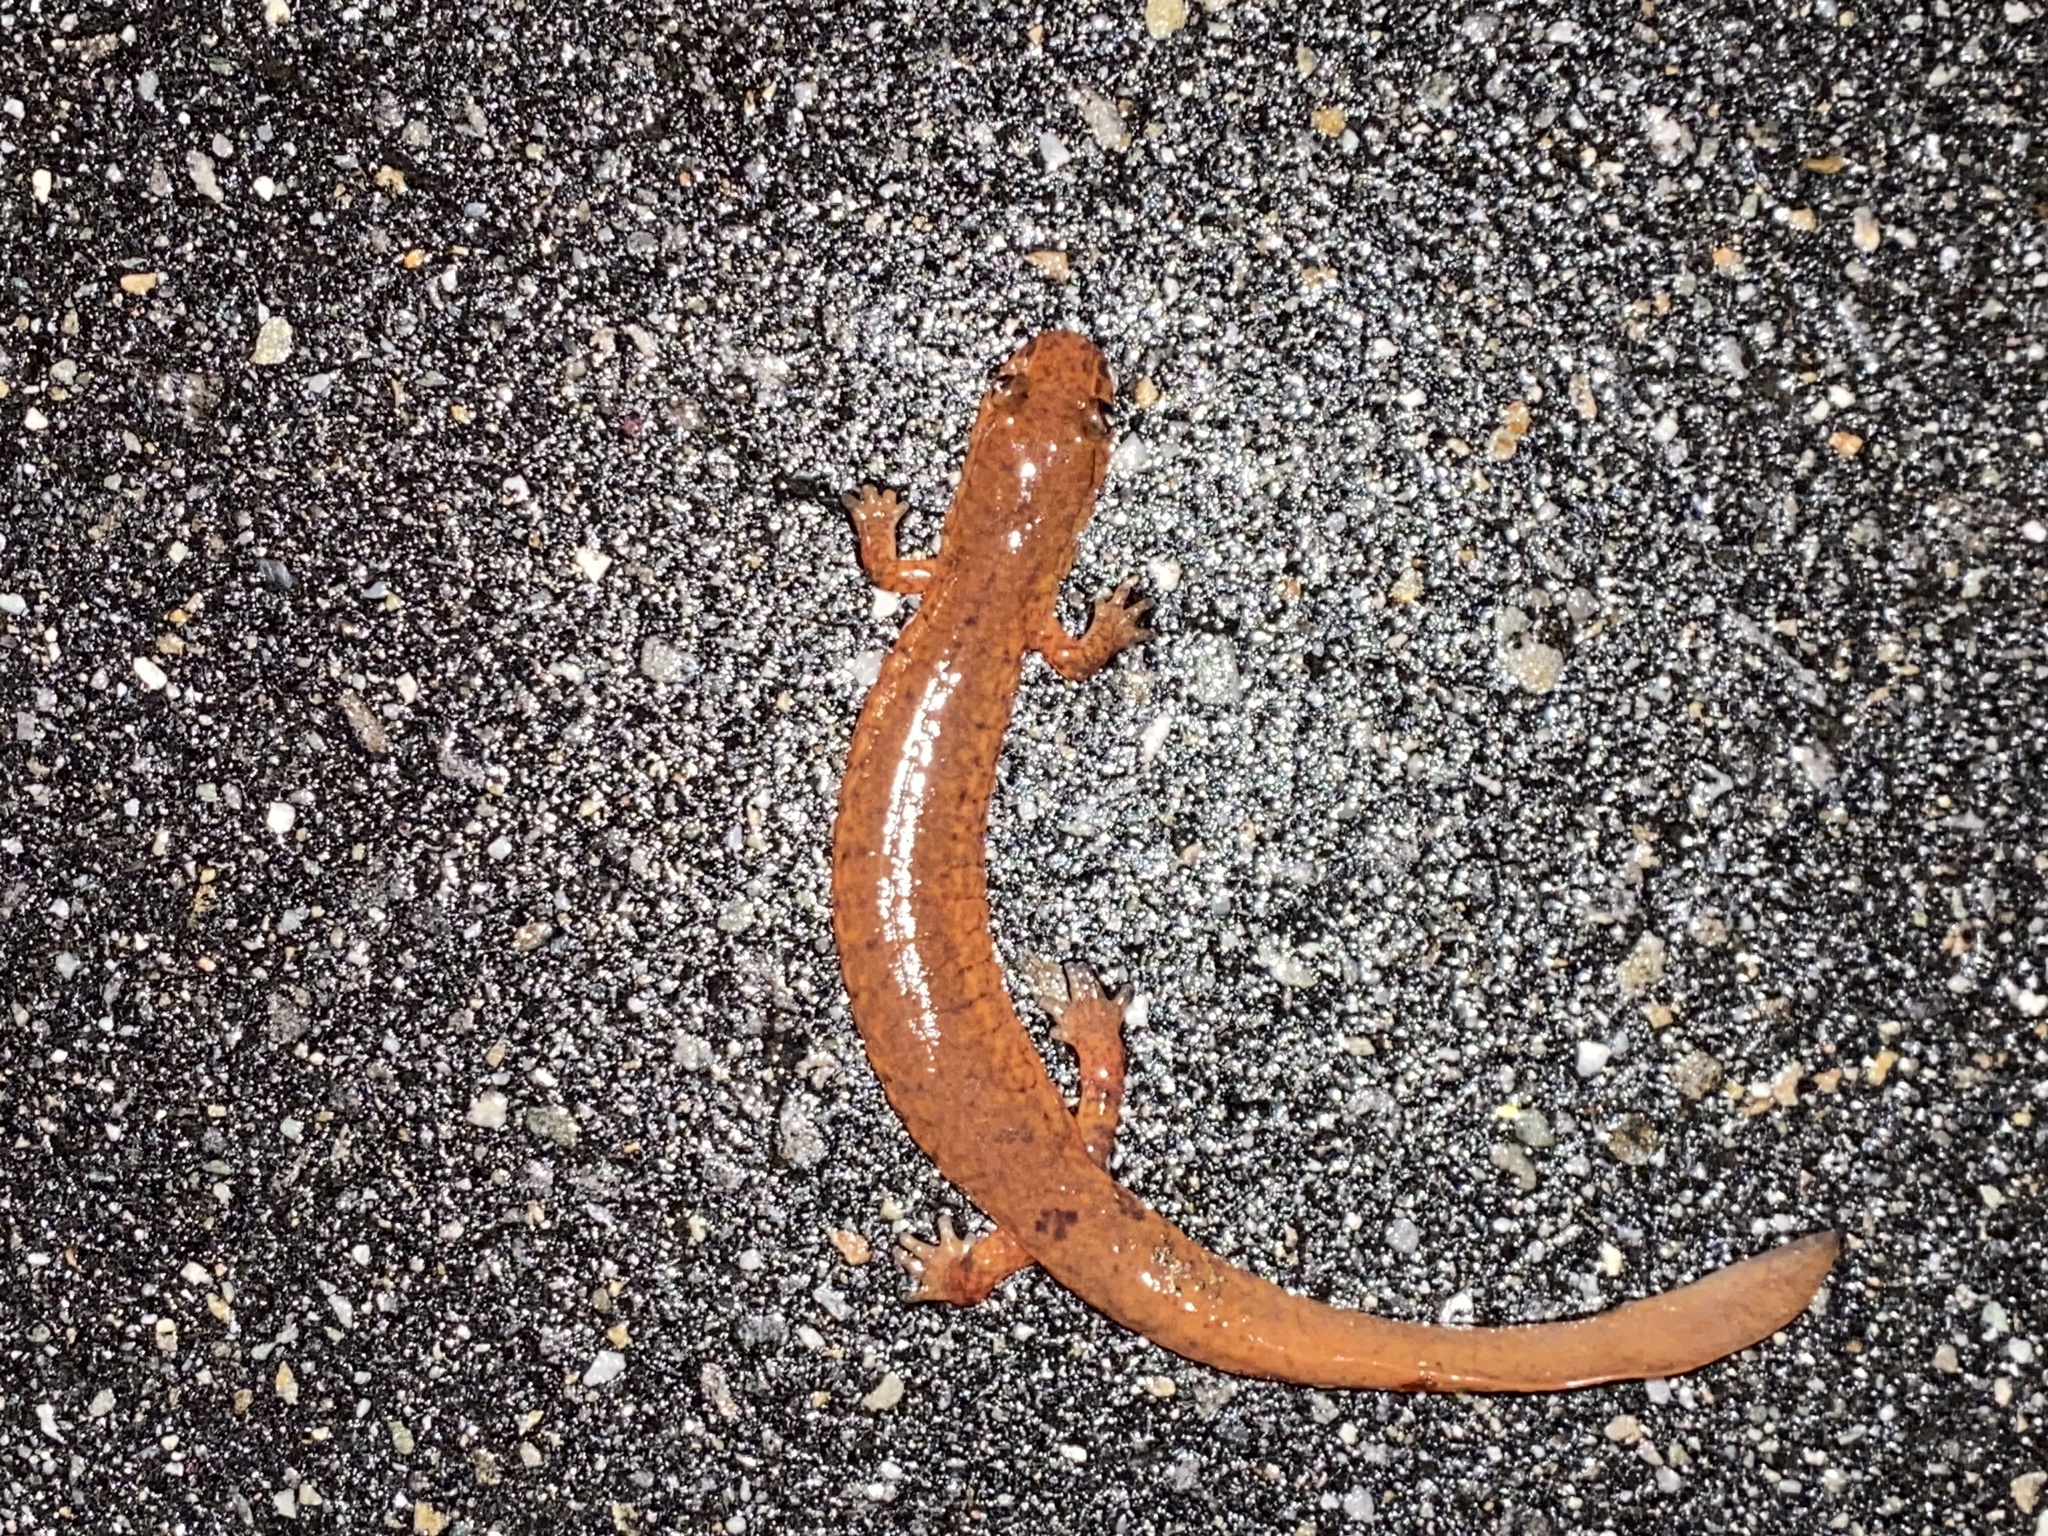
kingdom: Animalia
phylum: Chordata
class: Amphibia
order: Caudata
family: Plethodontidae
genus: Gyrinophilus
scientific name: Gyrinophilus porphyriticus
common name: Spring salamander
